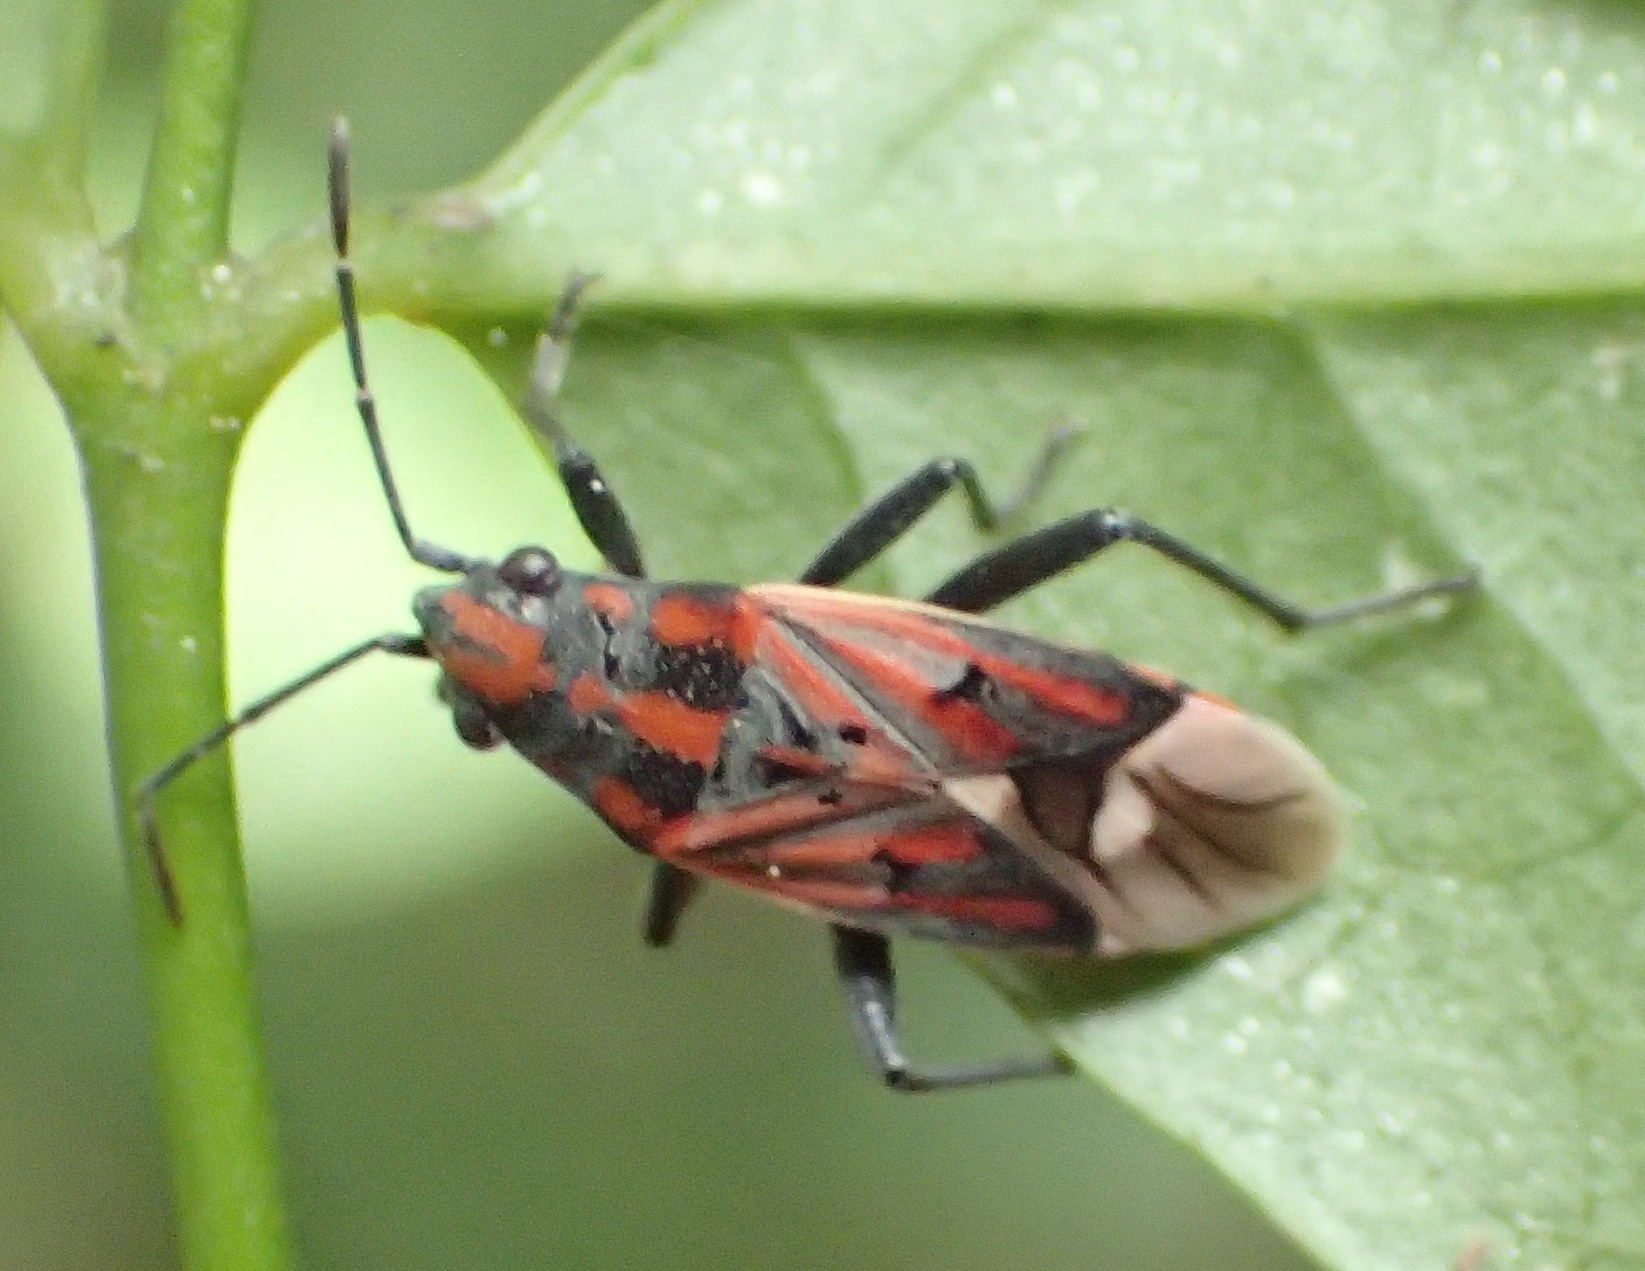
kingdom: Animalia
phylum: Arthropoda
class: Insecta
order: Hemiptera
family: Lygaeidae
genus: Haemobaphus
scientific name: Haemobaphus concinnus
